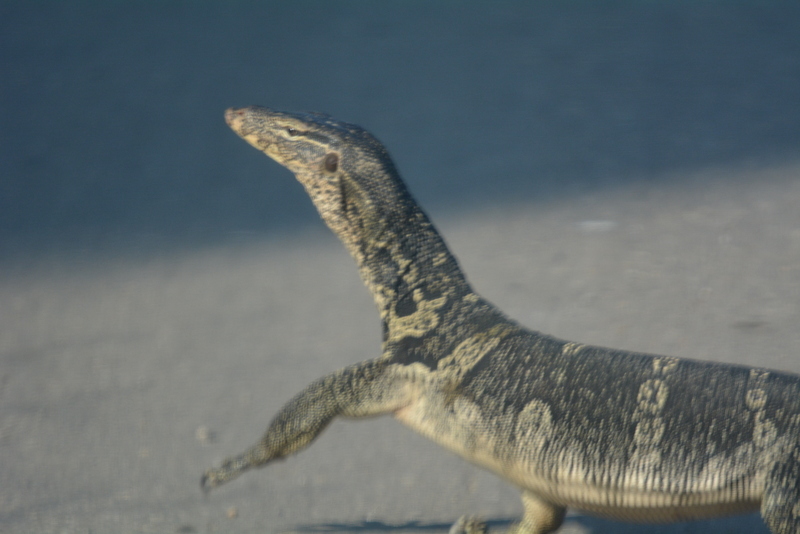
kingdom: Animalia
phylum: Chordata
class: Squamata
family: Varanidae
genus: Varanus
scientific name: Varanus salvator
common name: Common water monitor
